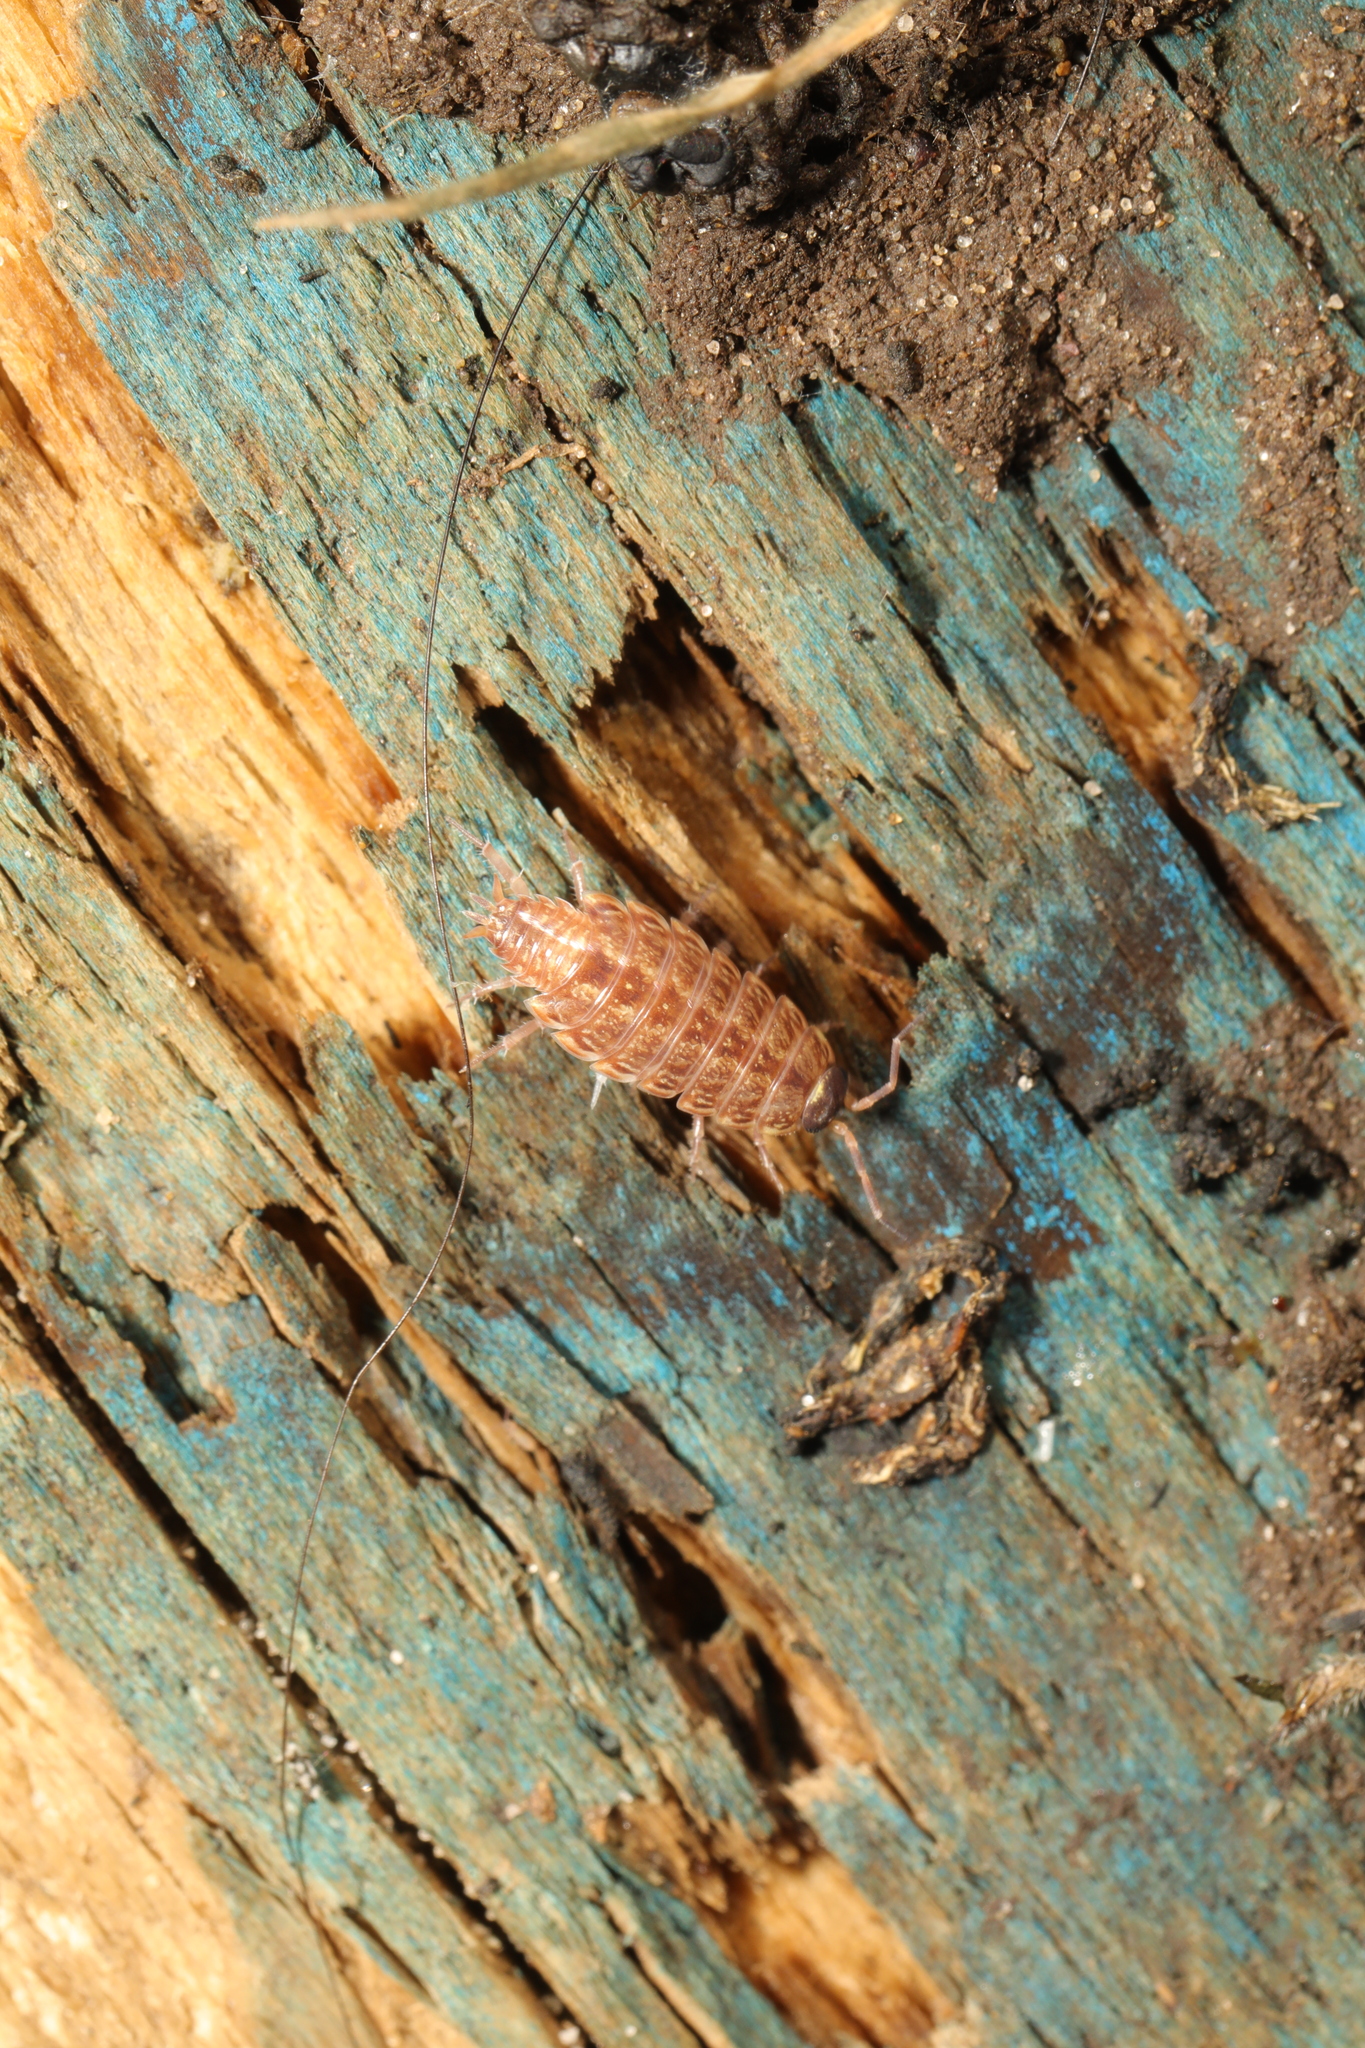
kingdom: Animalia
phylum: Arthropoda
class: Malacostraca
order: Isopoda
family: Philosciidae
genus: Philoscia
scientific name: Philoscia muscorum
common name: Common striped woodlouse
